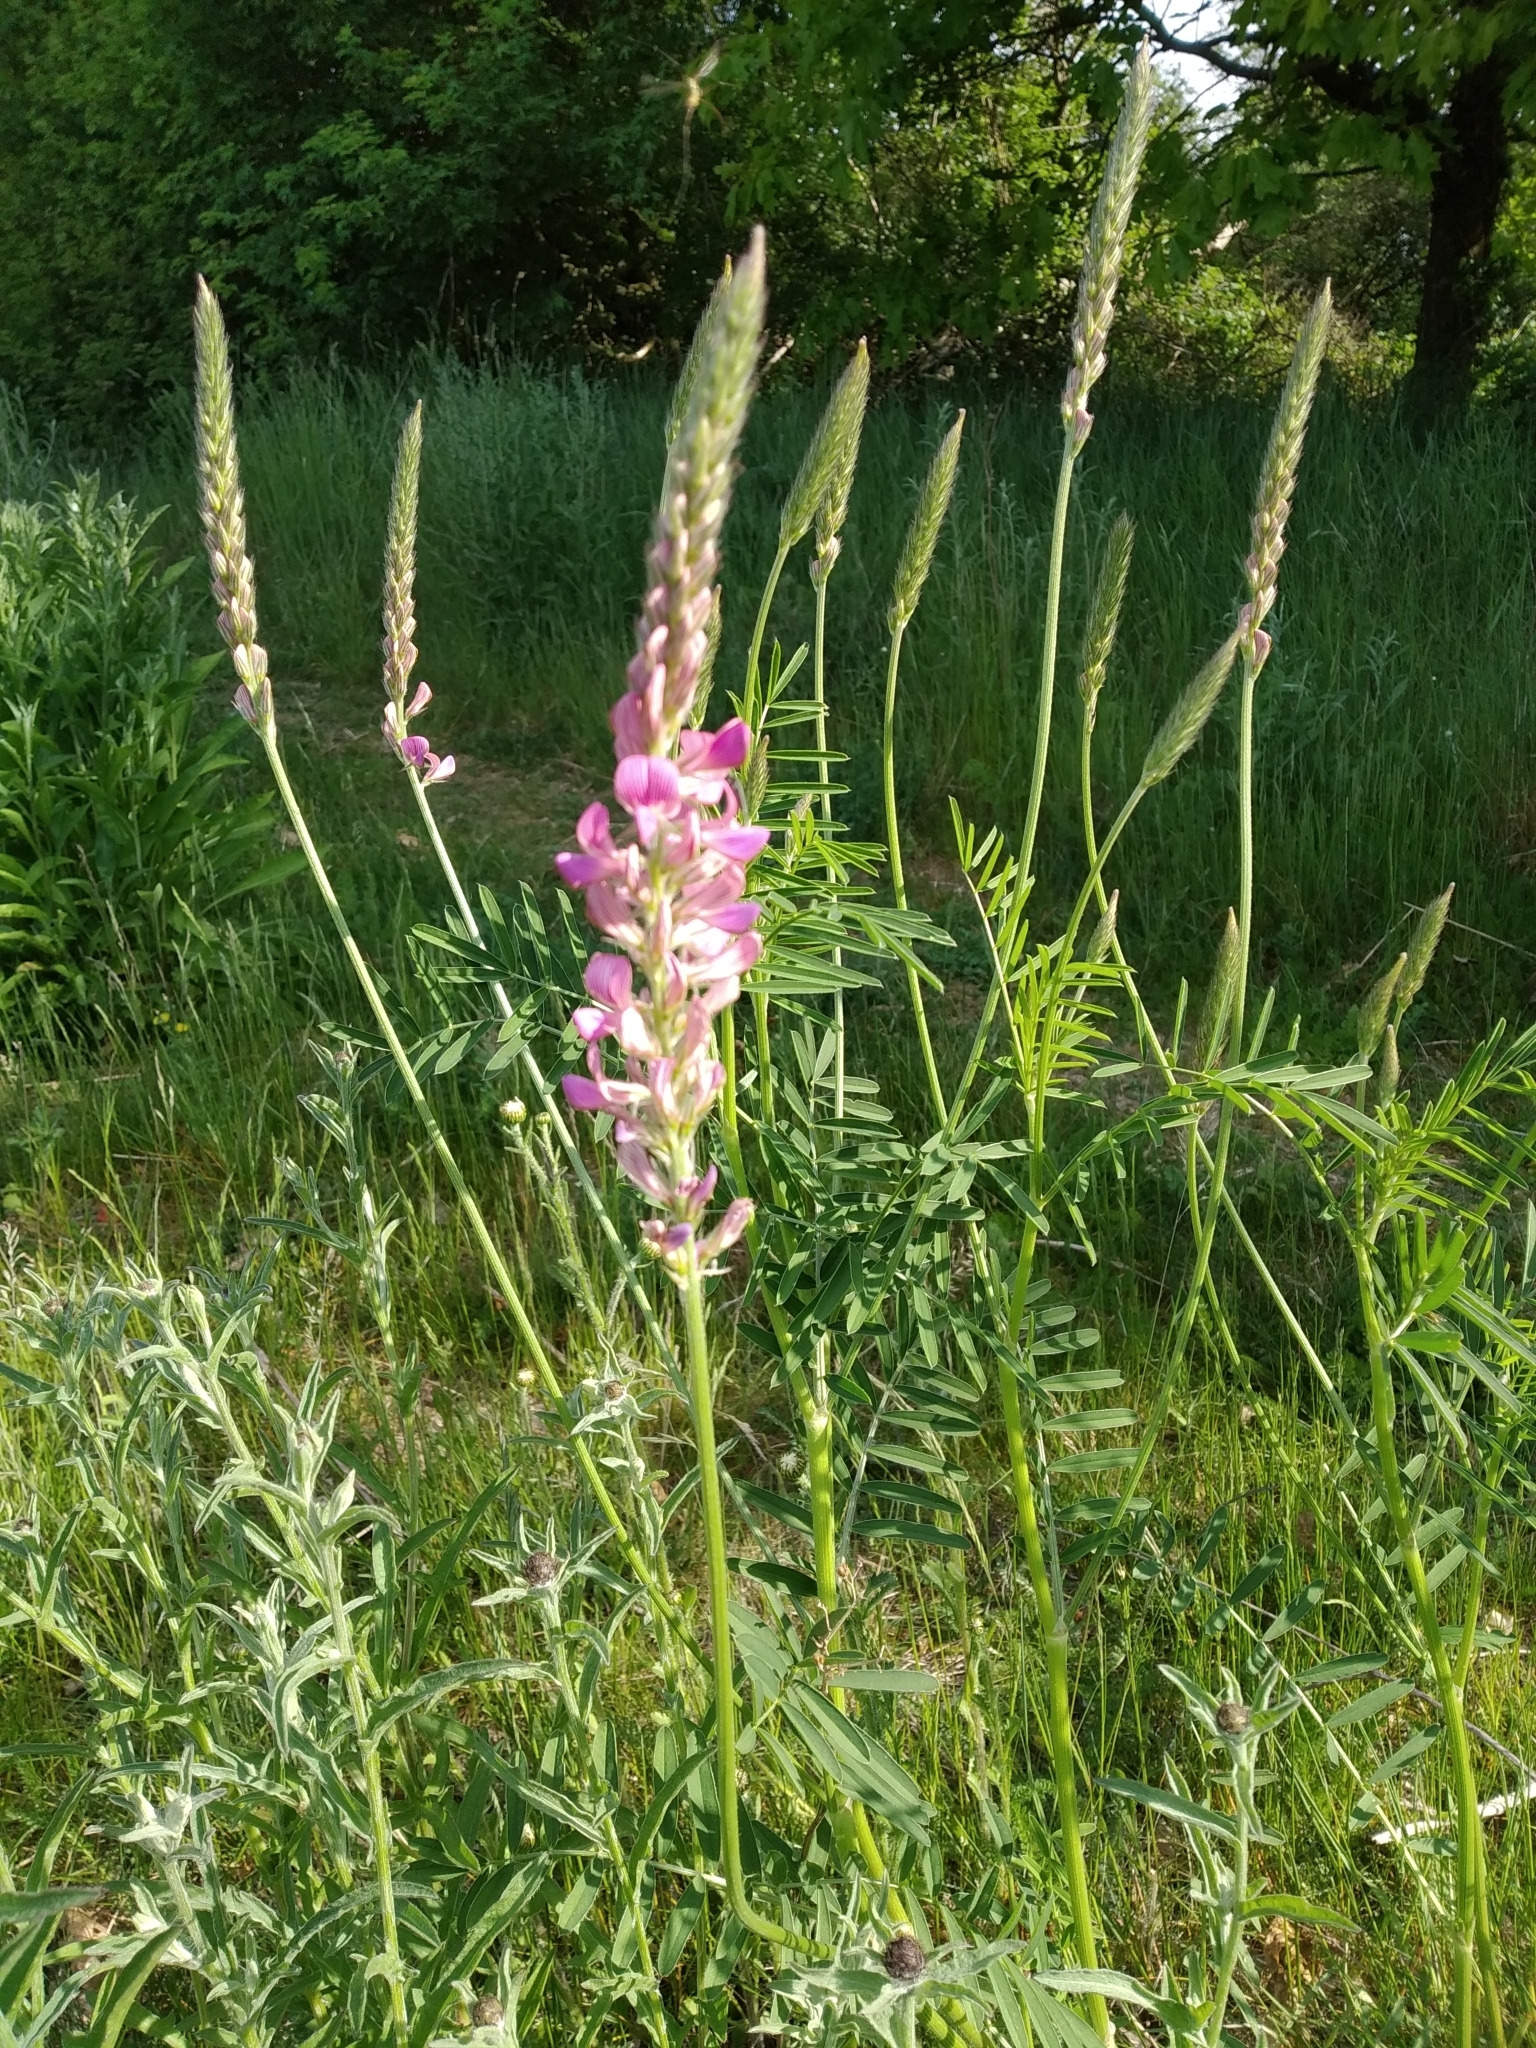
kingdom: Plantae
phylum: Tracheophyta
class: Magnoliopsida
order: Fabales
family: Fabaceae
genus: Onobrychis
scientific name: Onobrychis viciifolia
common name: Sainfoin
